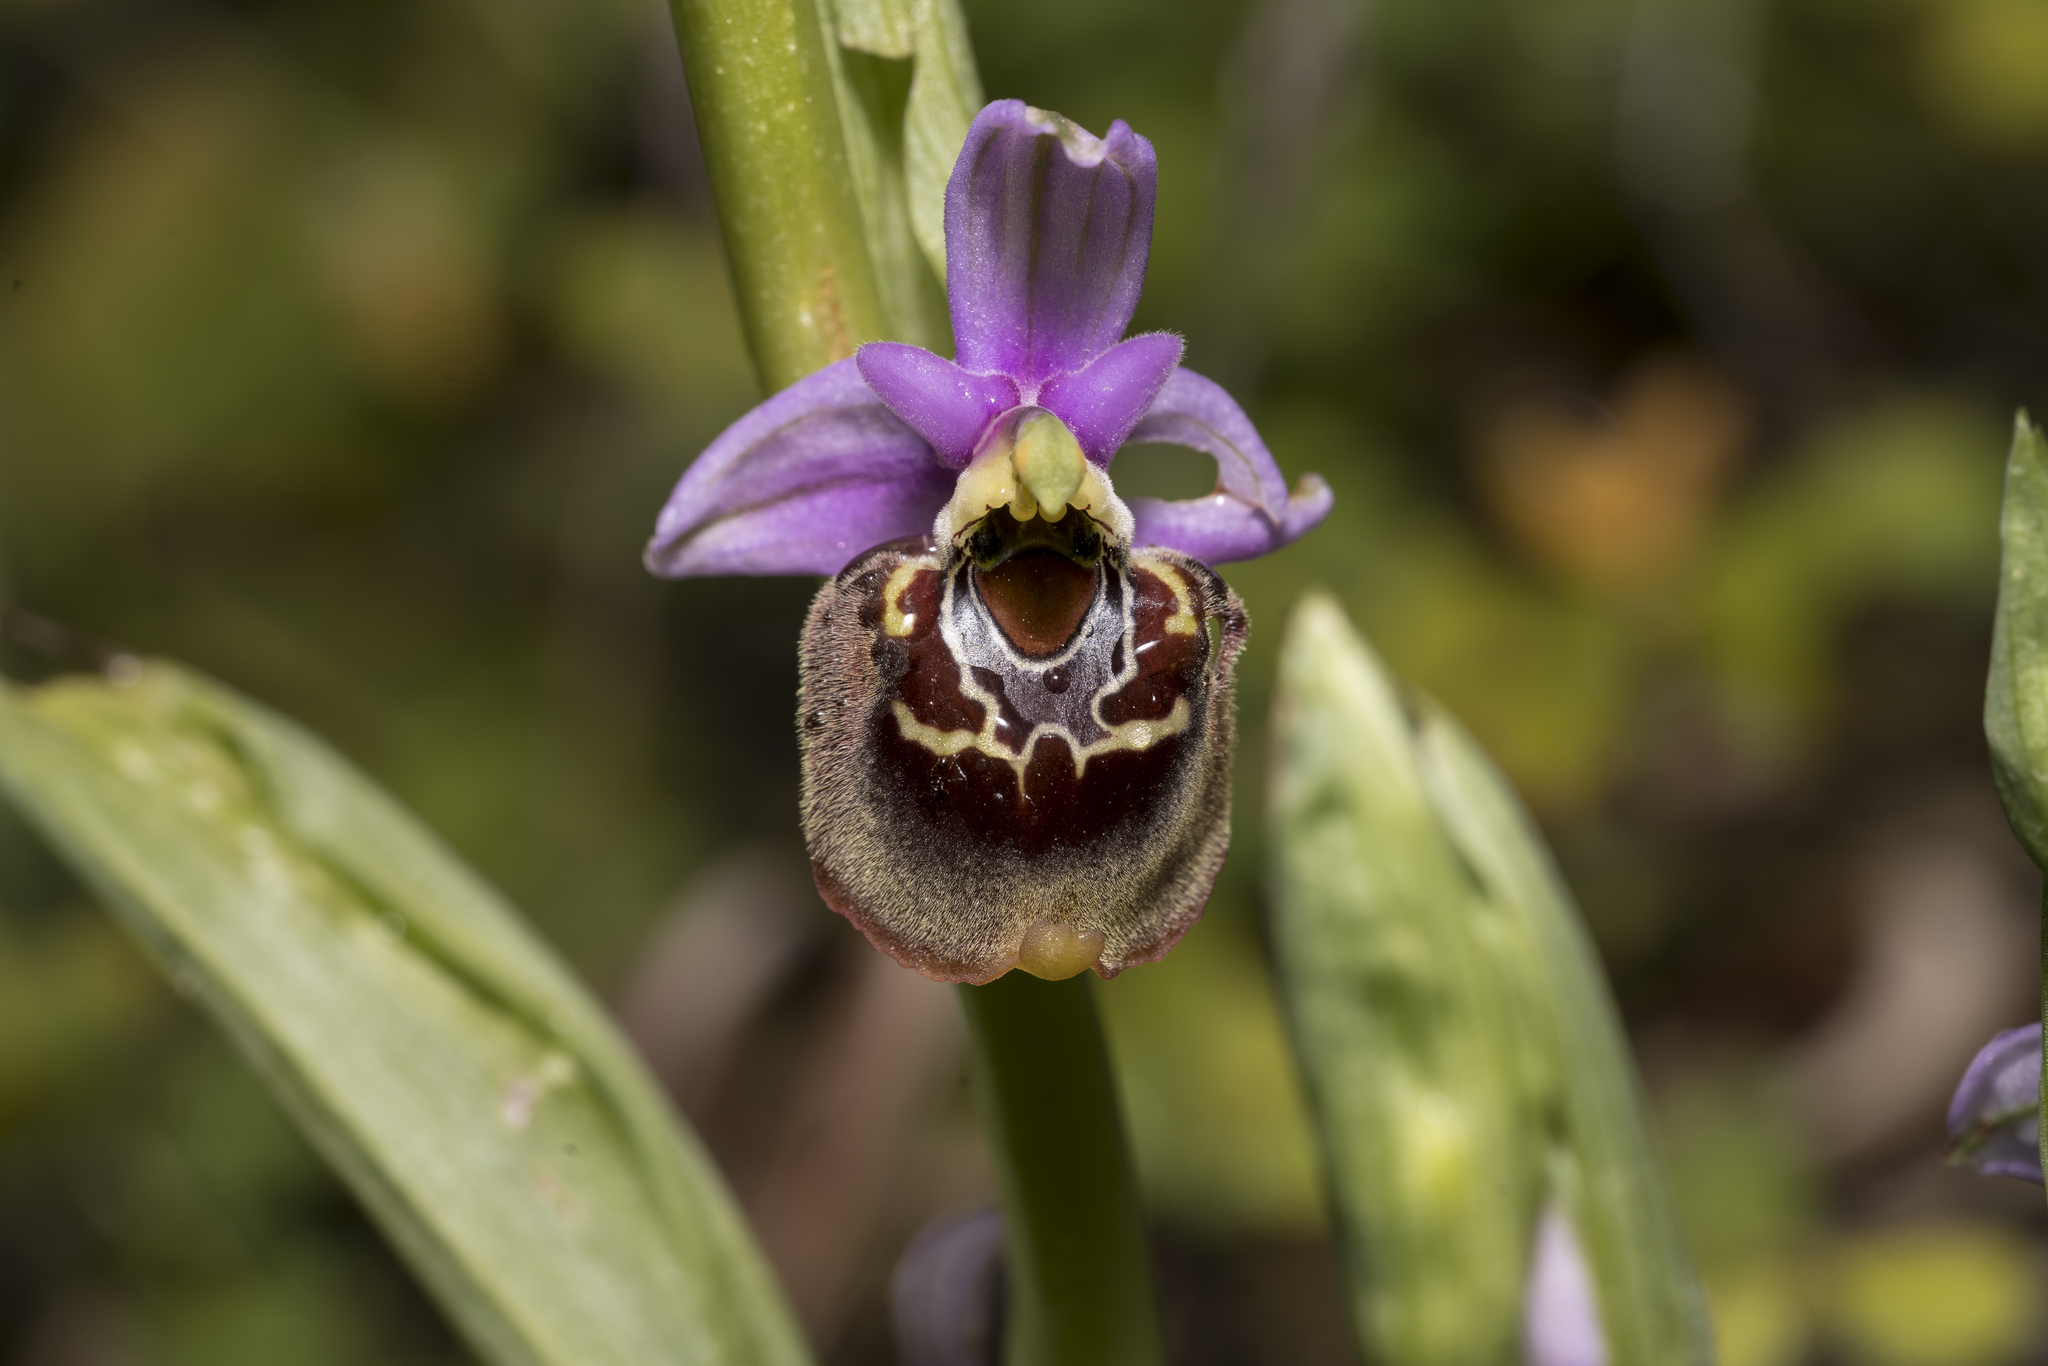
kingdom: Plantae
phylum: Tracheophyta
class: Liliopsida
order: Asparagales
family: Orchidaceae
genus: Ophrys
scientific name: Ophrys holosericea
